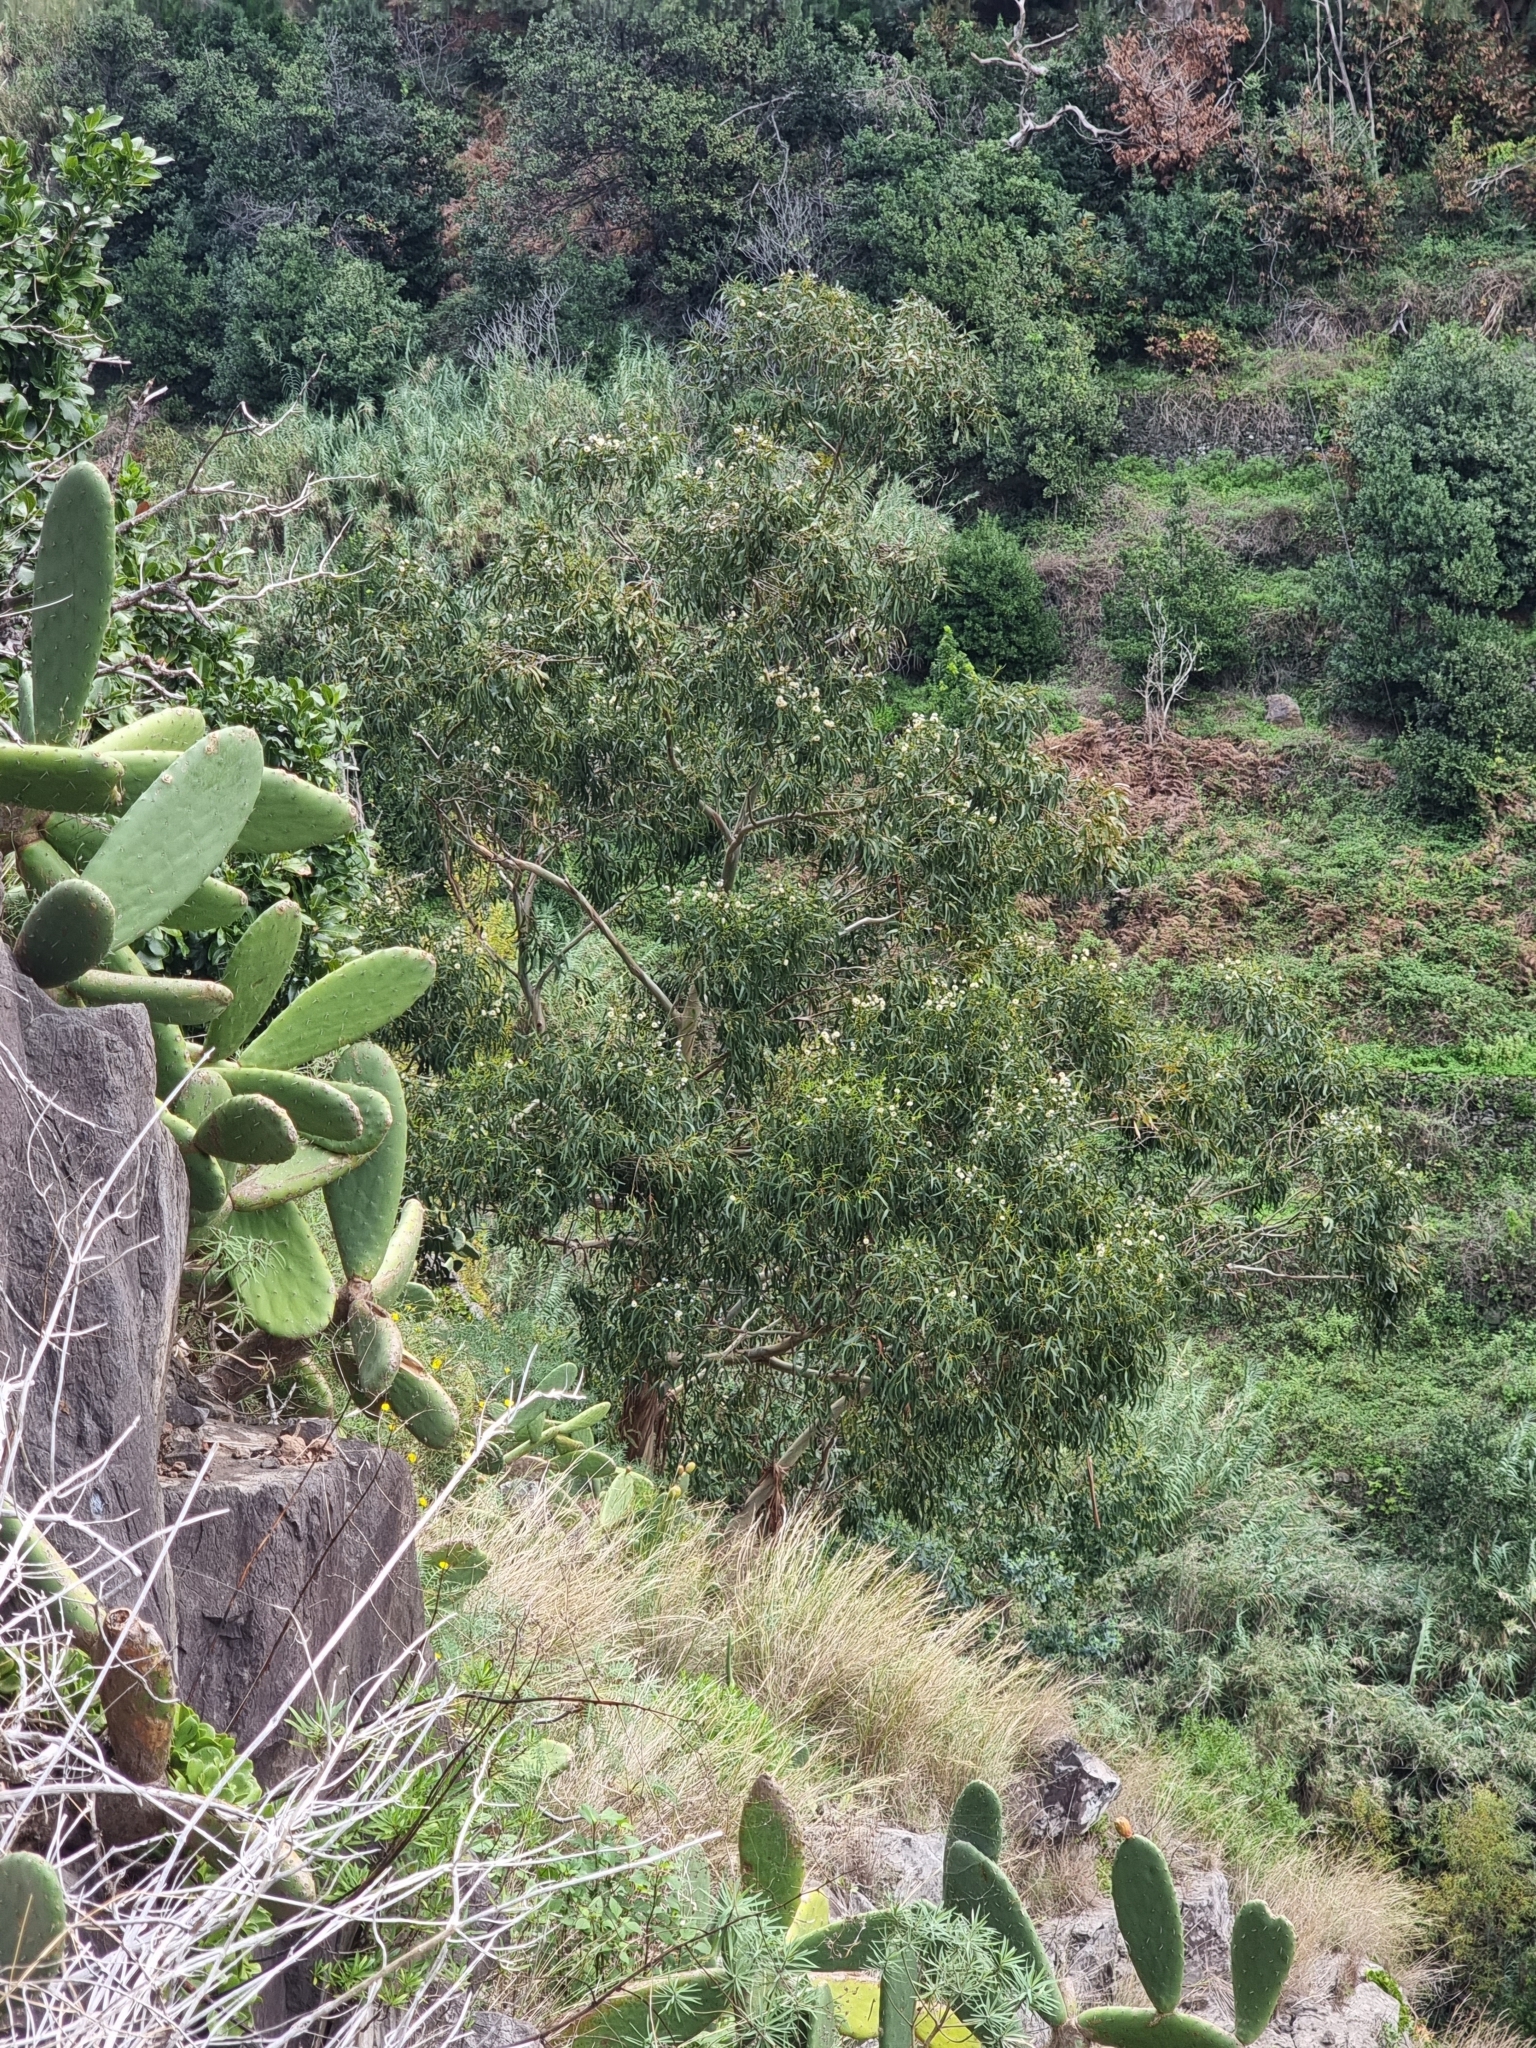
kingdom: Plantae
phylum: Tracheophyta
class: Magnoliopsida
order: Myrtales
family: Myrtaceae
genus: Eucalyptus
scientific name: Eucalyptus globulus
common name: Southern blue-gum
